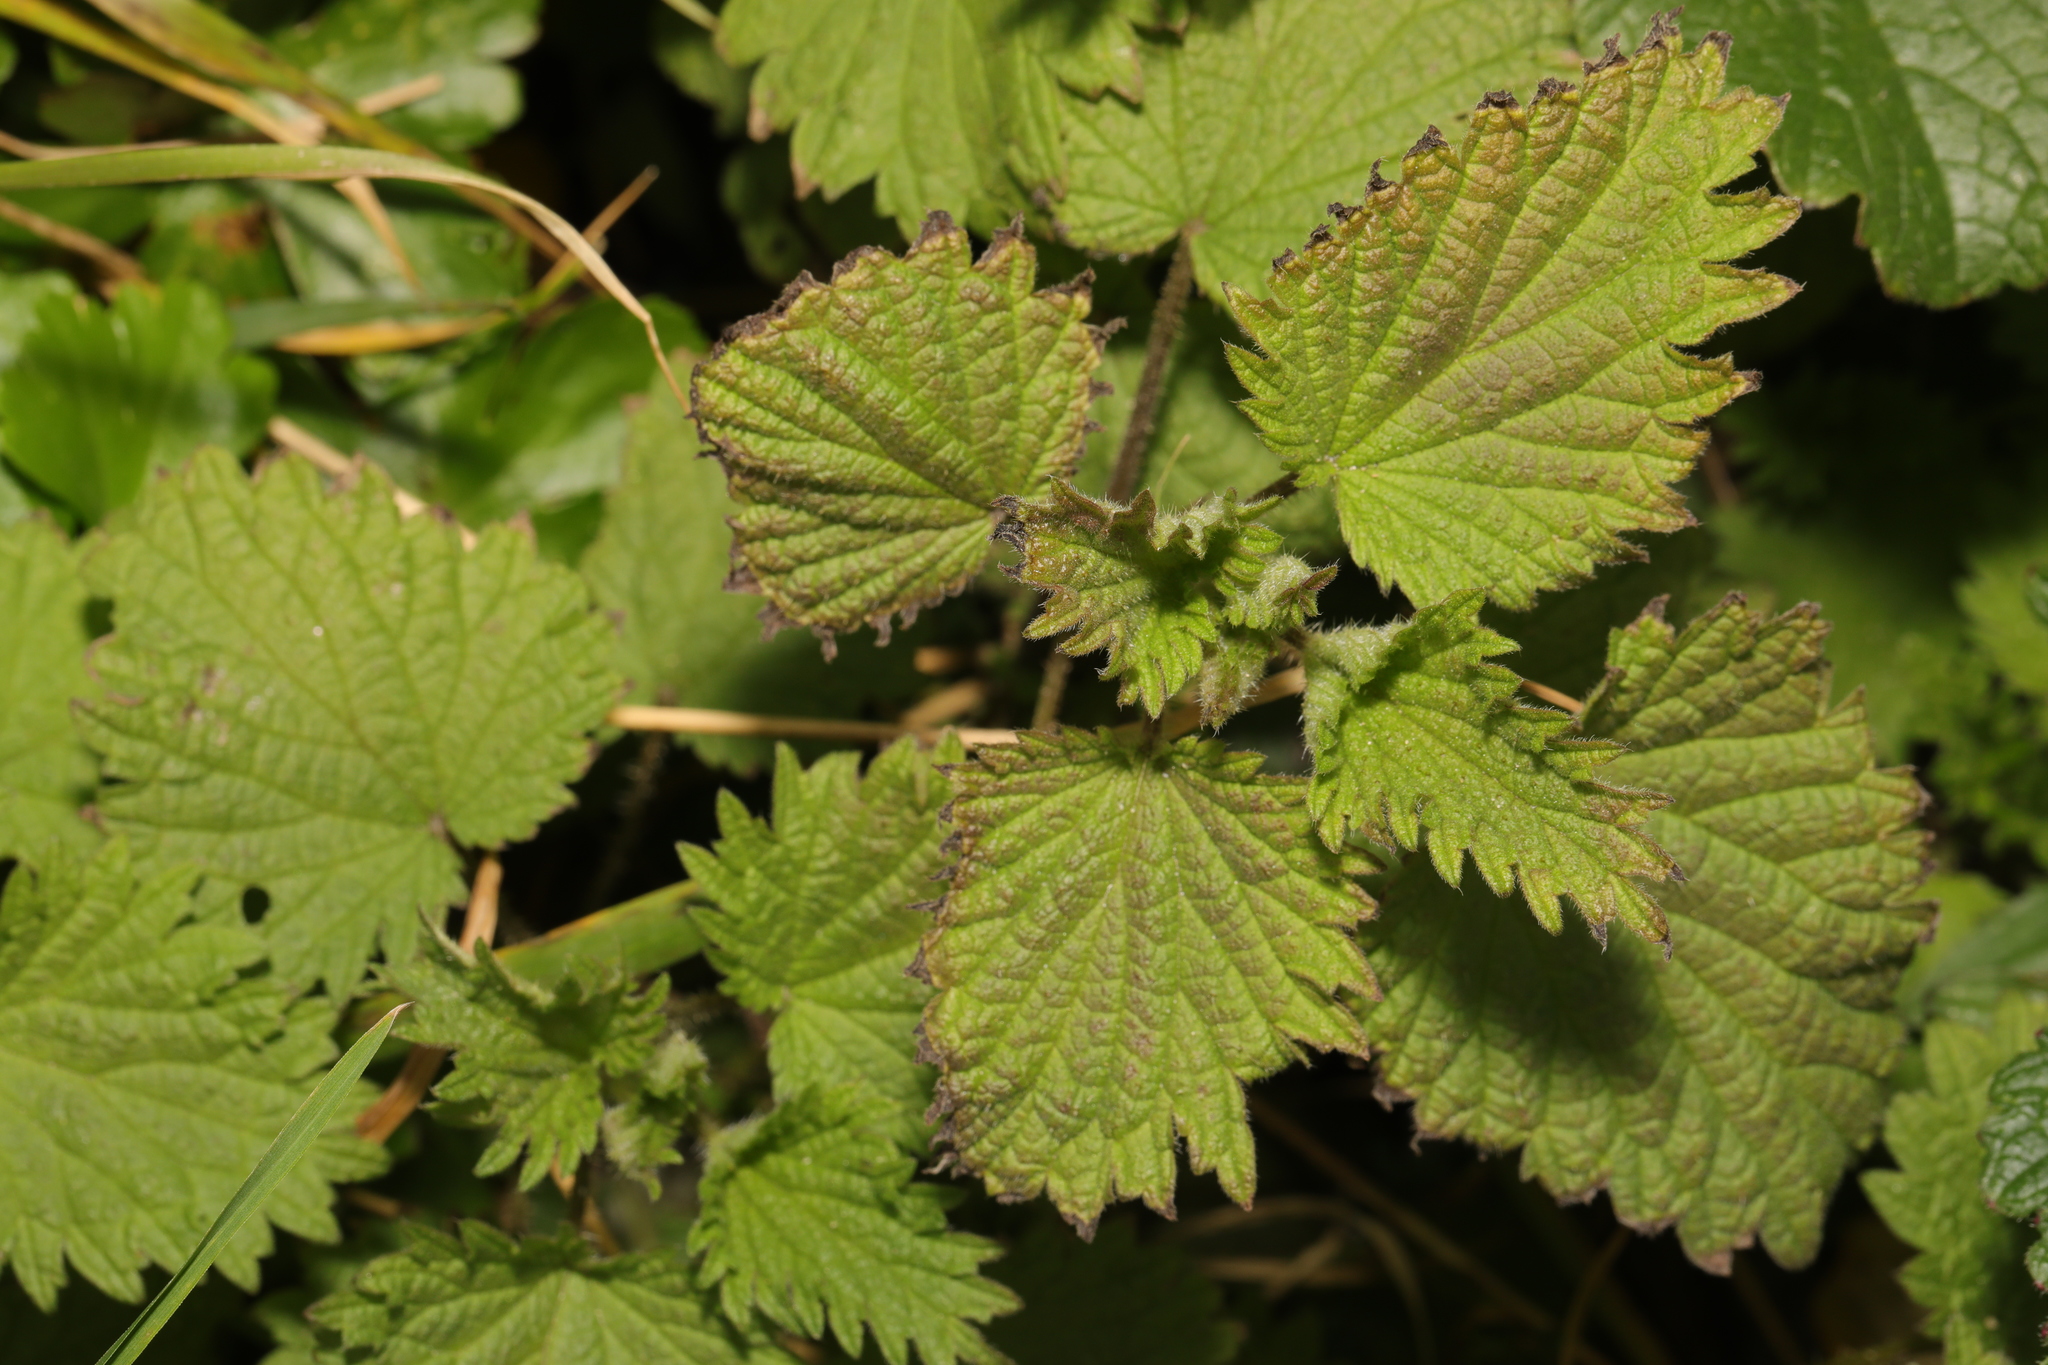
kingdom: Plantae
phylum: Tracheophyta
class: Magnoliopsida
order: Rosales
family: Urticaceae
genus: Urtica
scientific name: Urtica dioica
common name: Common nettle
